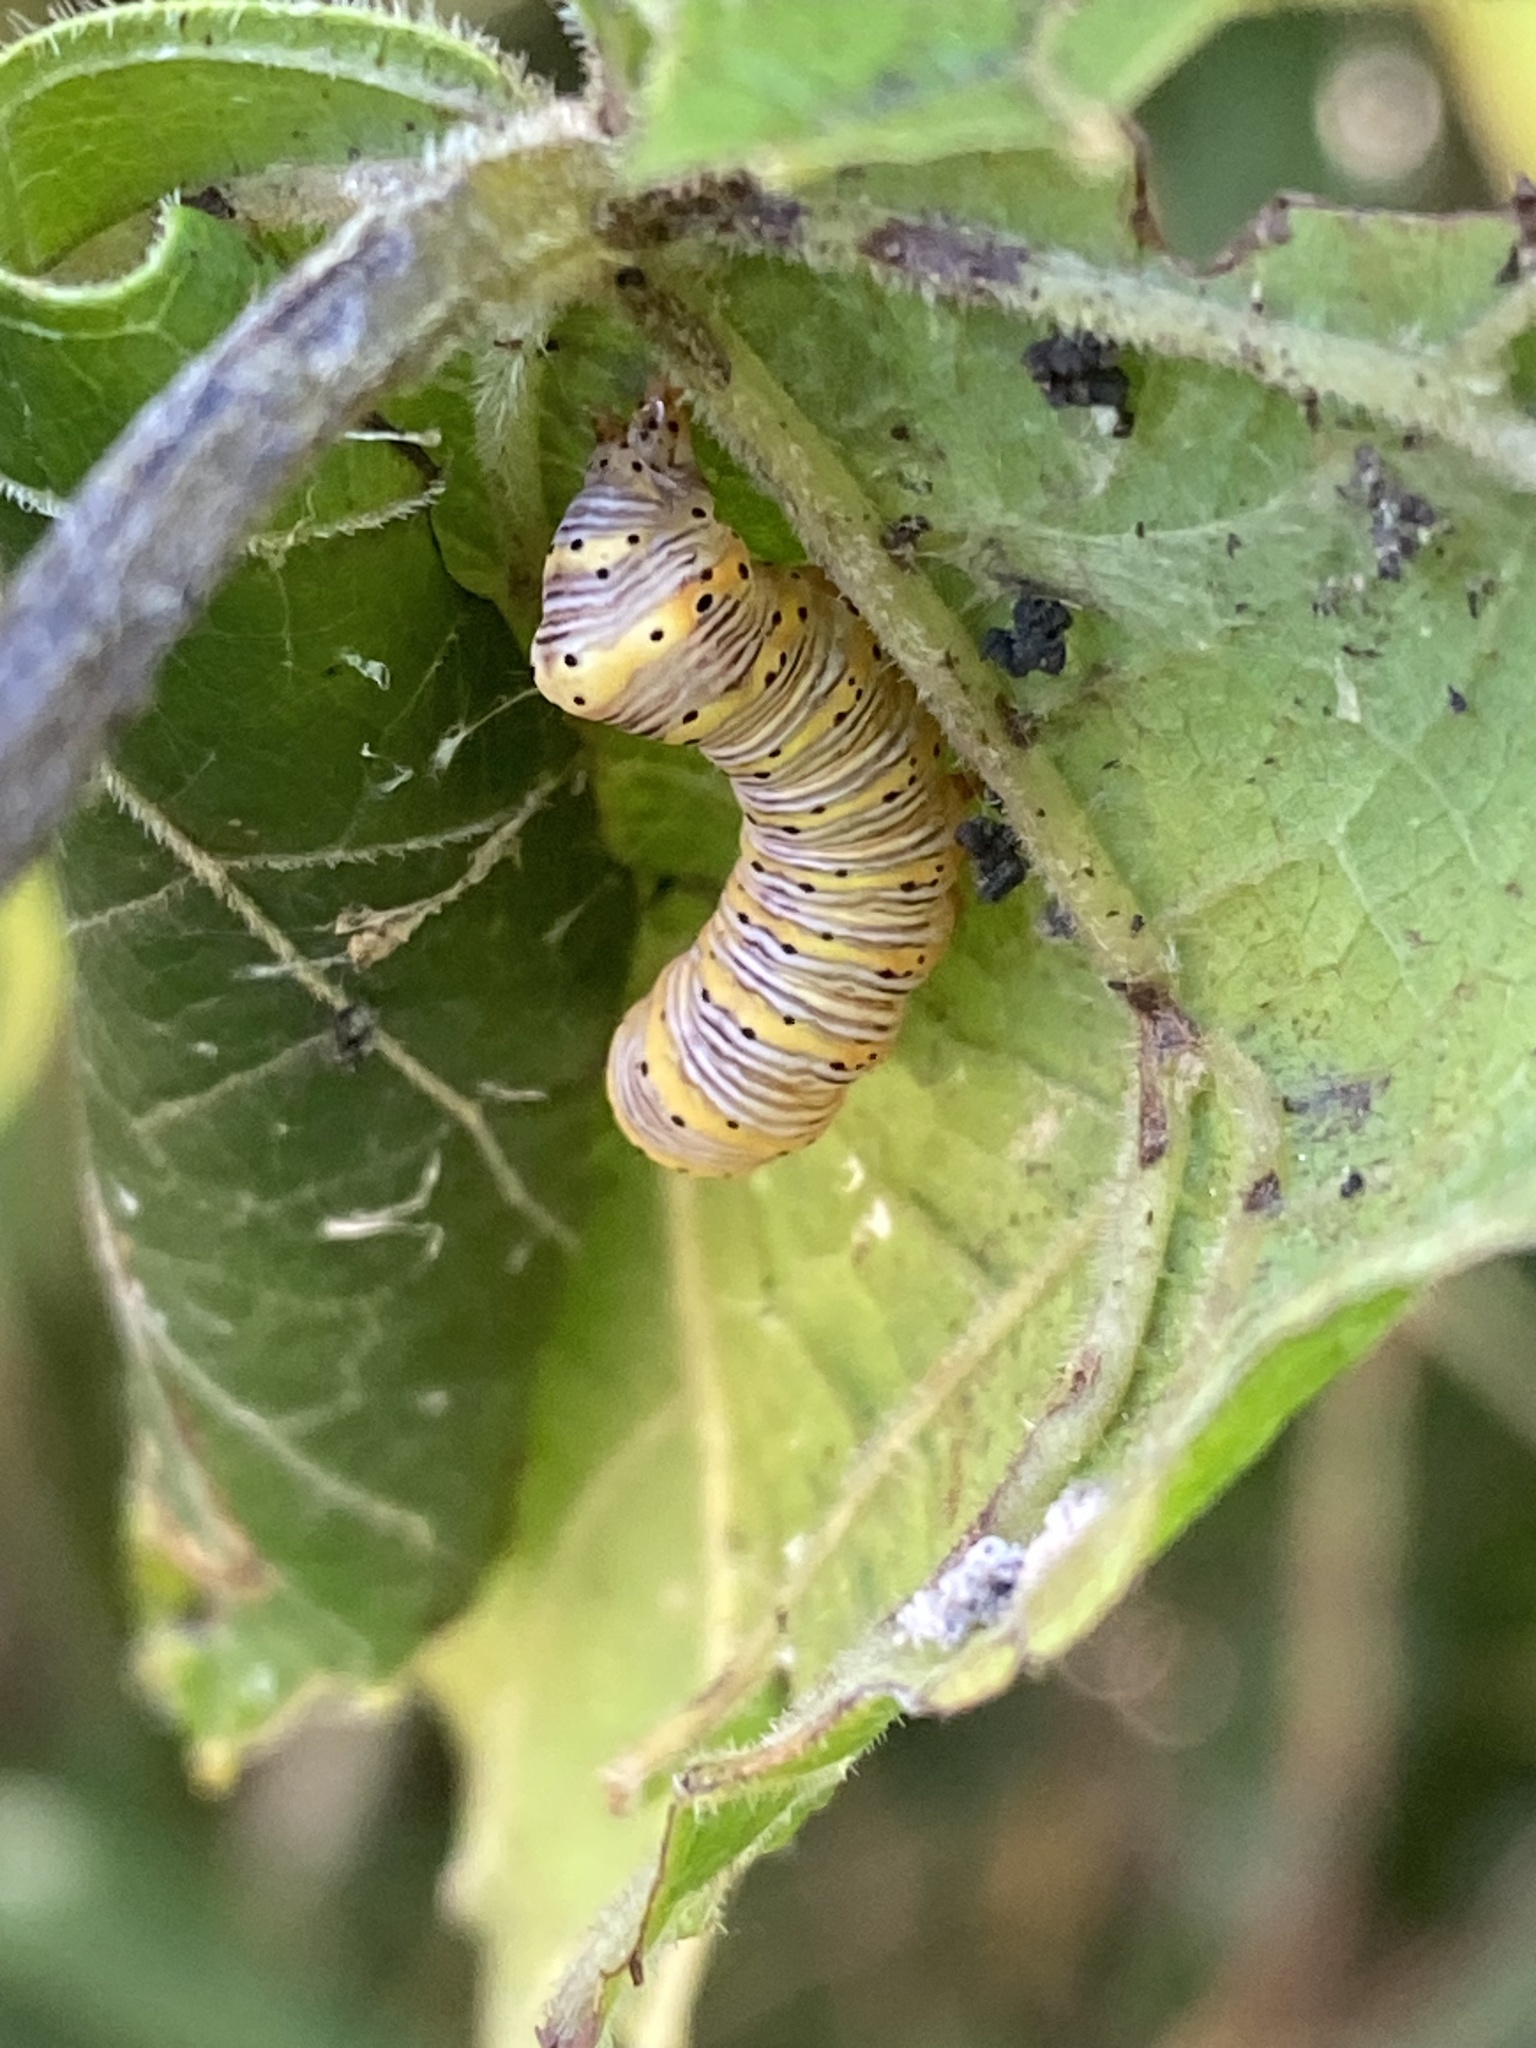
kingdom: Animalia
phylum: Arthropoda
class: Insecta
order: Lepidoptera
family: Noctuidae
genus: Eudryas
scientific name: Eudryas grata
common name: Beautiful wood-nymph
